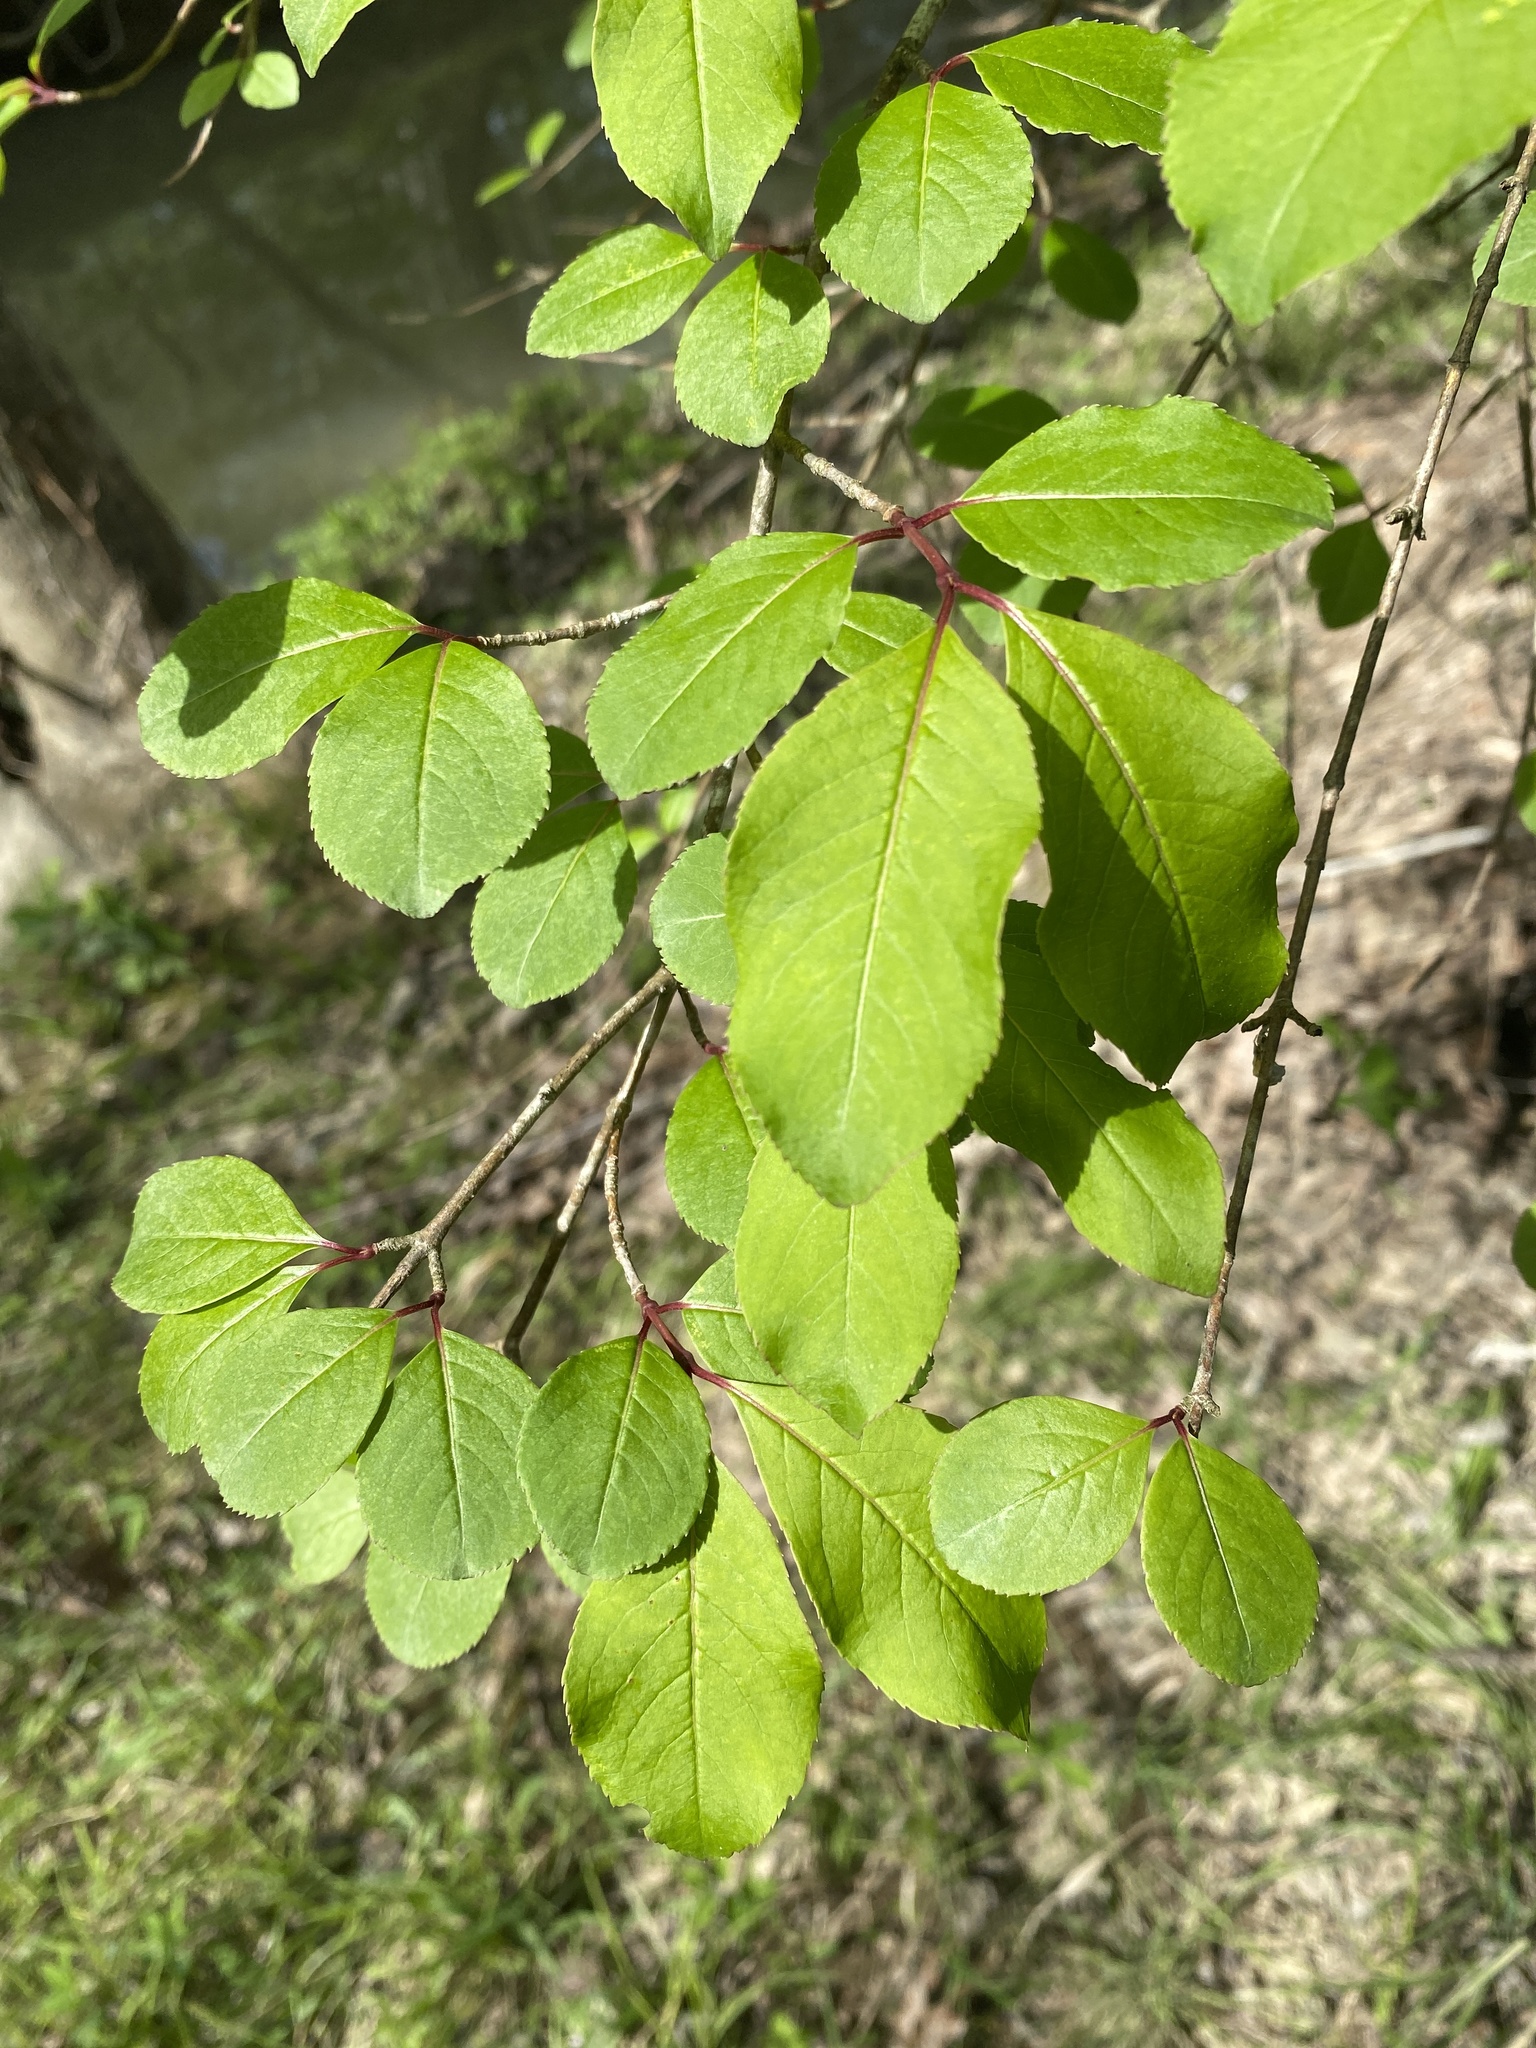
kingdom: Plantae
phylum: Tracheophyta
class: Magnoliopsida
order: Dipsacales
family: Viburnaceae
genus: Viburnum
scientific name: Viburnum prunifolium
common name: Black haw
